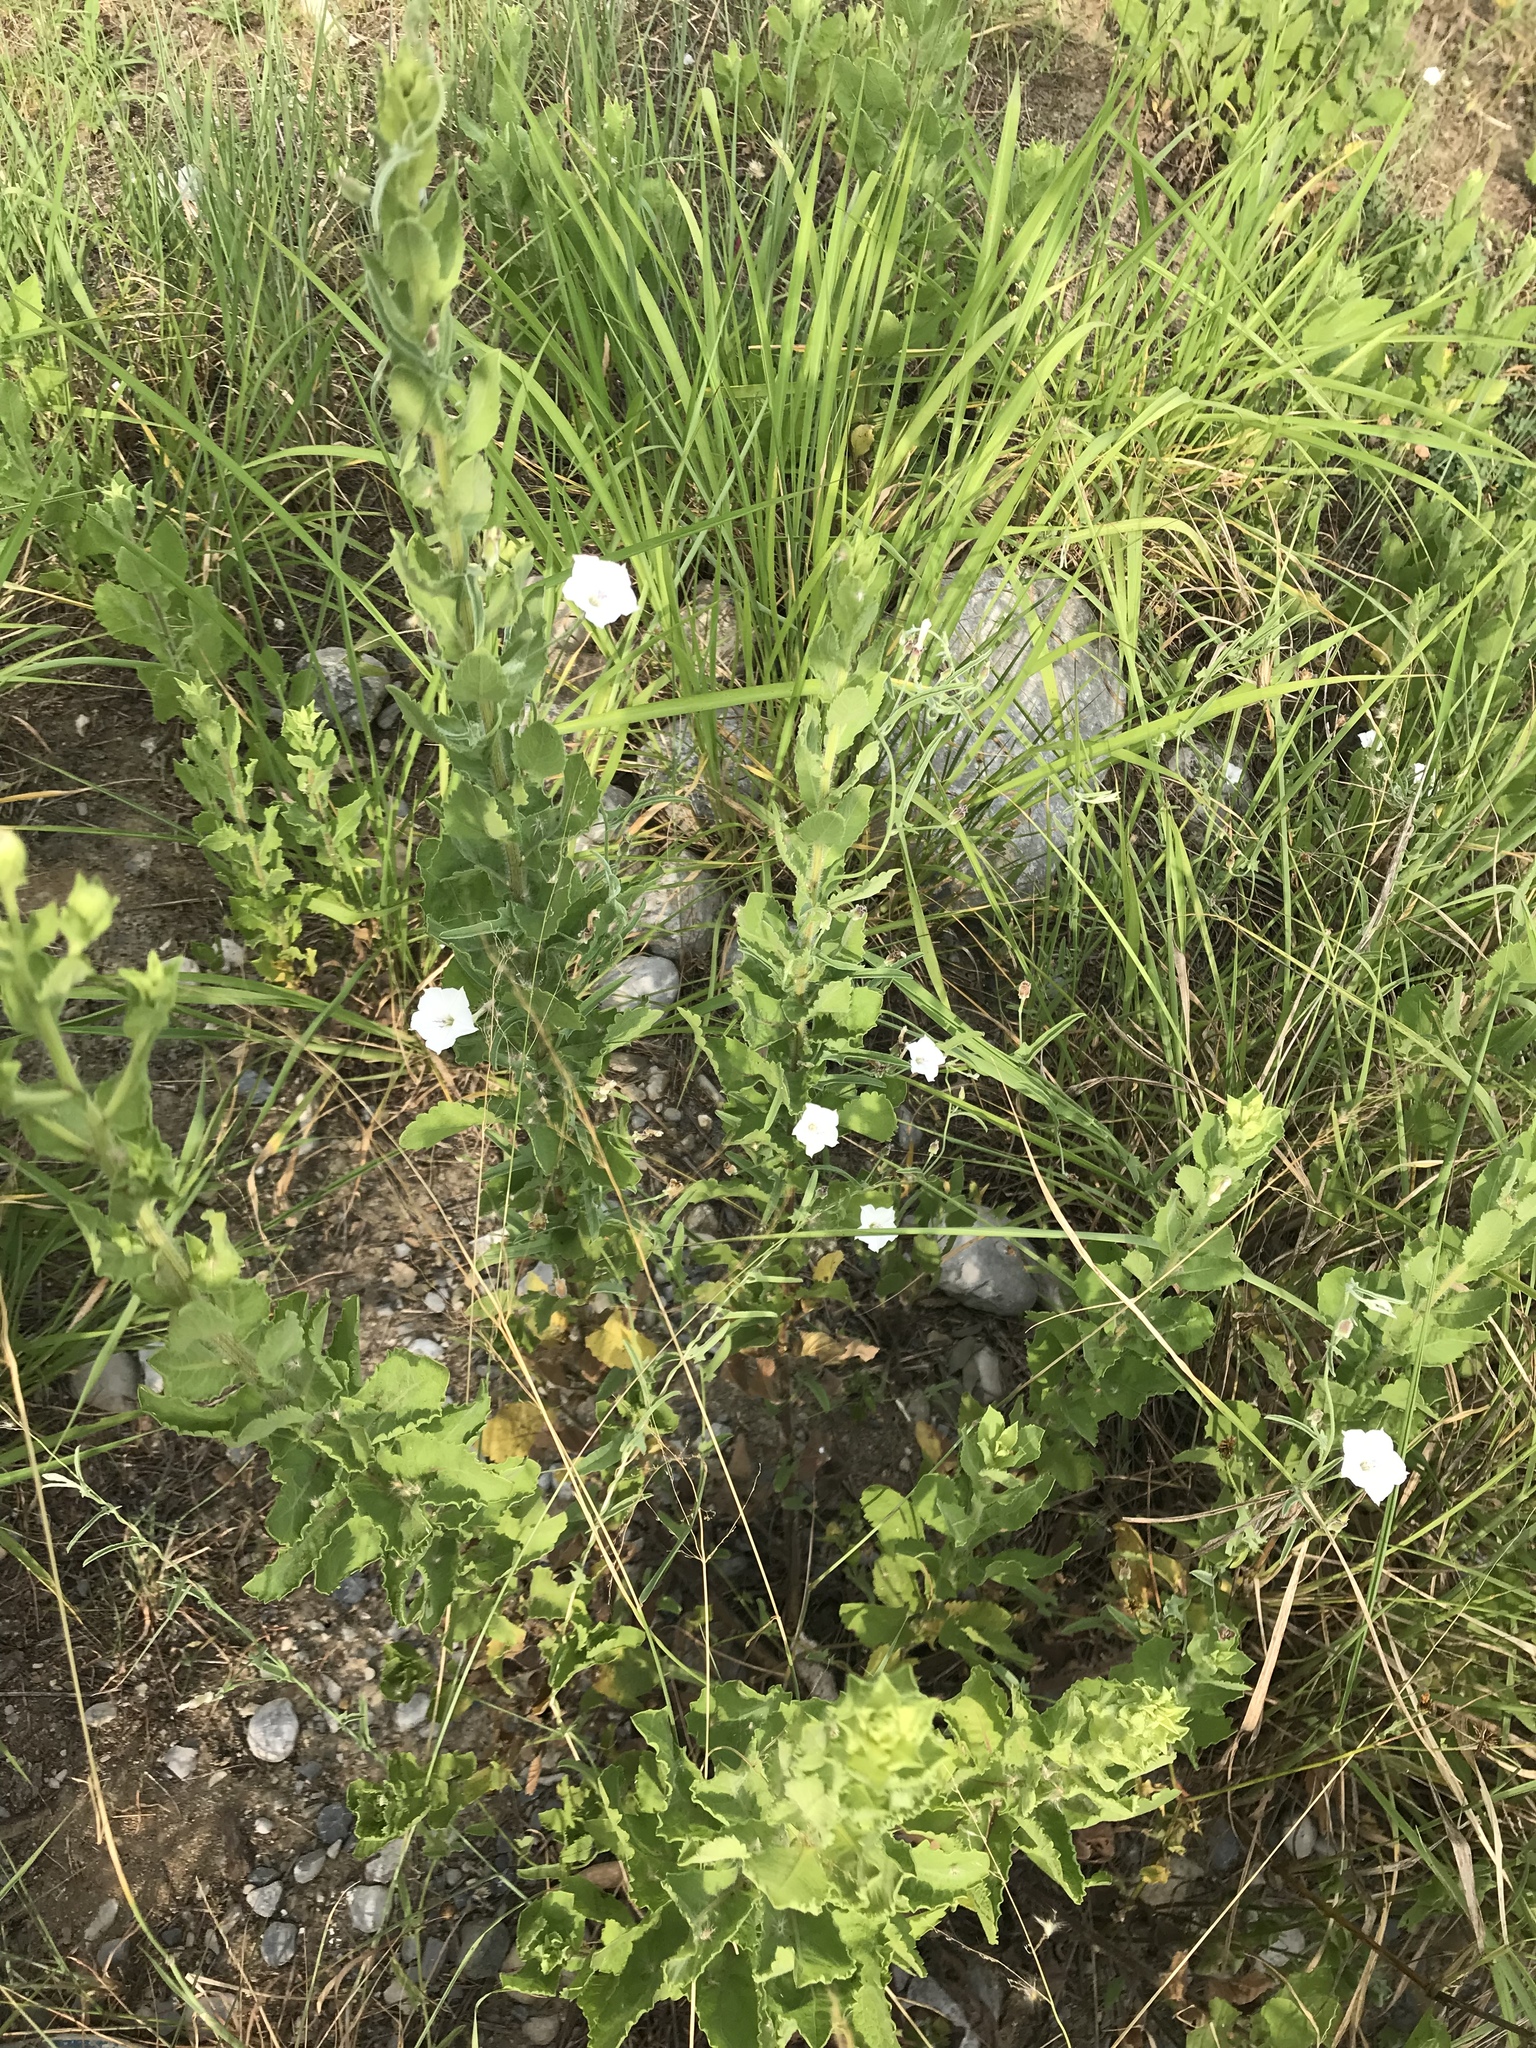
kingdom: Plantae
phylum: Tracheophyta
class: Magnoliopsida
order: Solanales
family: Convolvulaceae
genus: Convolvulus
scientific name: Convolvulus equitans
